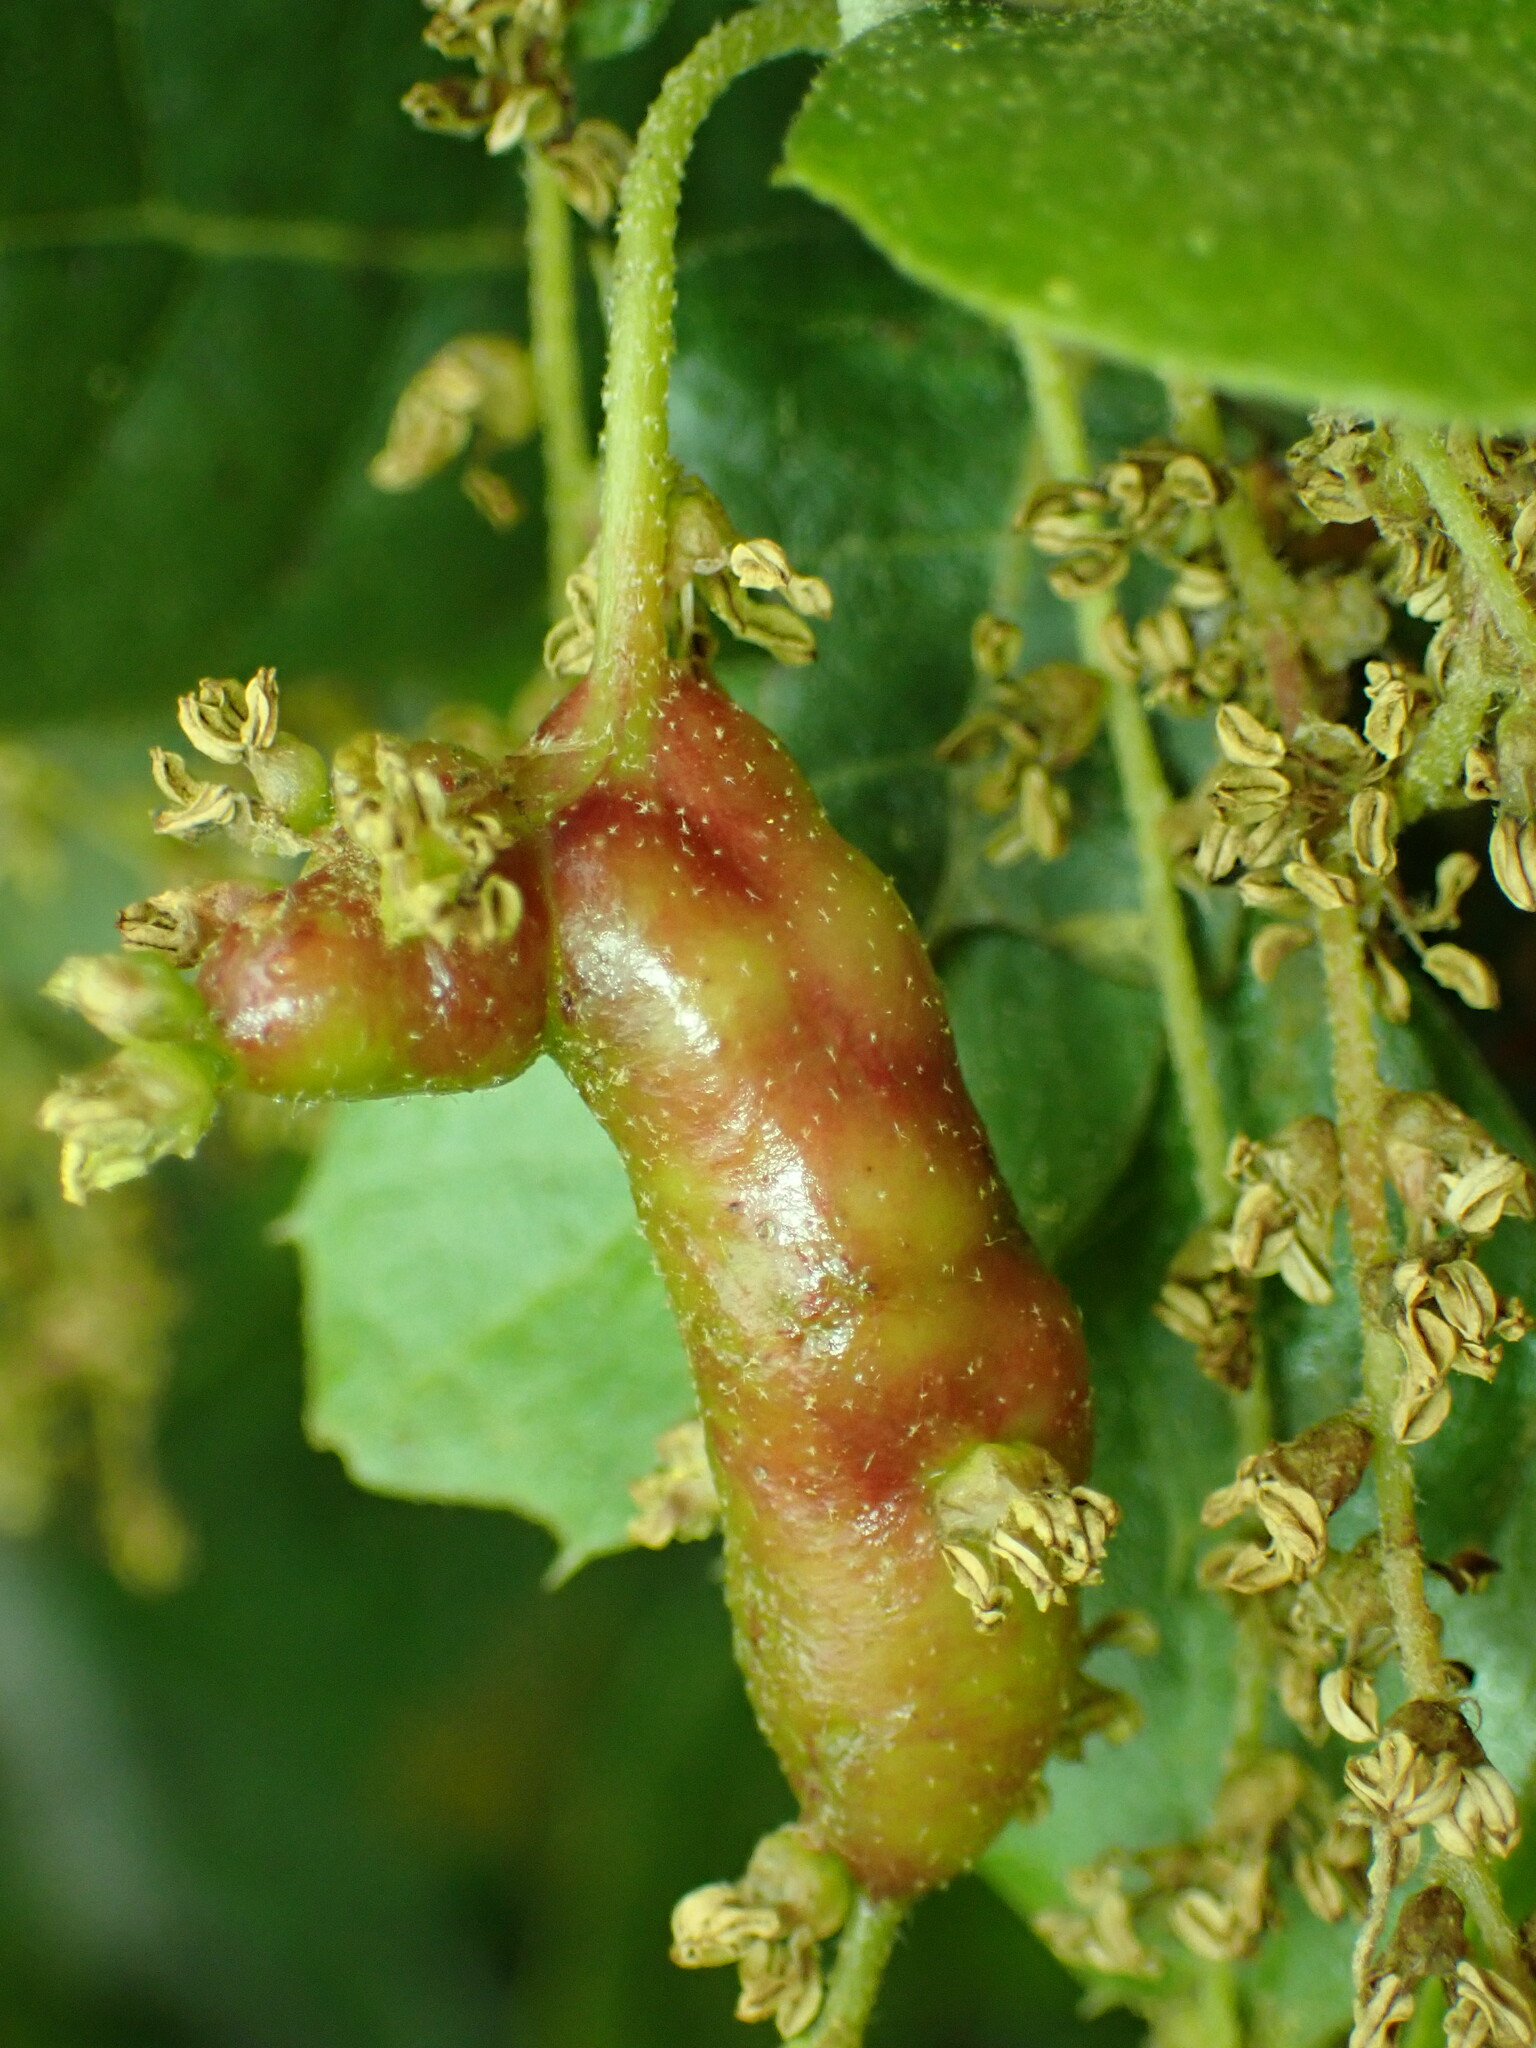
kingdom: Animalia
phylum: Arthropoda
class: Insecta
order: Hymenoptera
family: Cynipidae
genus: Callirhytis
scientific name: Callirhytis
